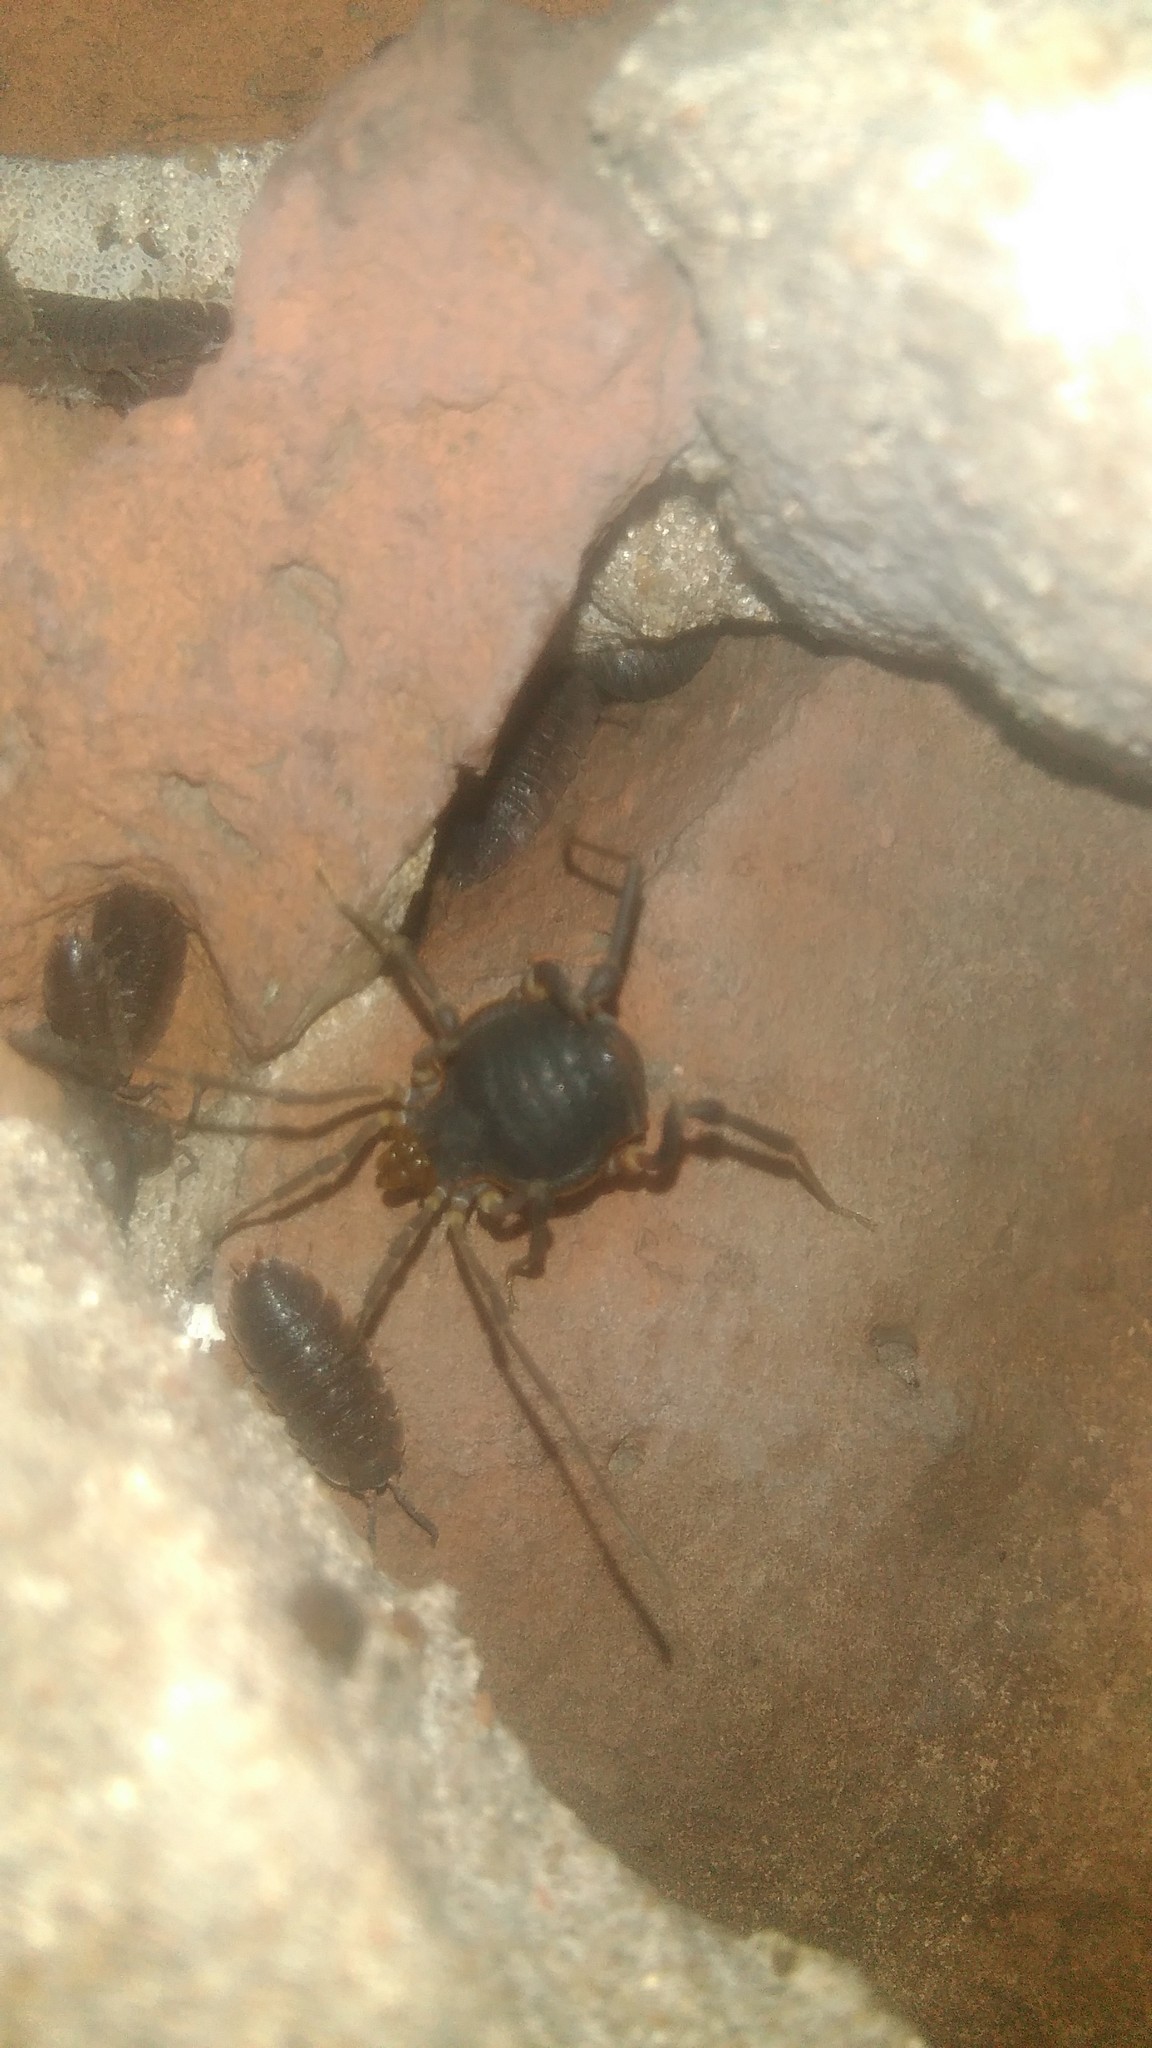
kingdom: Animalia
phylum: Arthropoda
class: Arachnida
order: Opiliones
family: Gonyleptidae
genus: Acanthopachylus
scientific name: Acanthopachylus robustus
